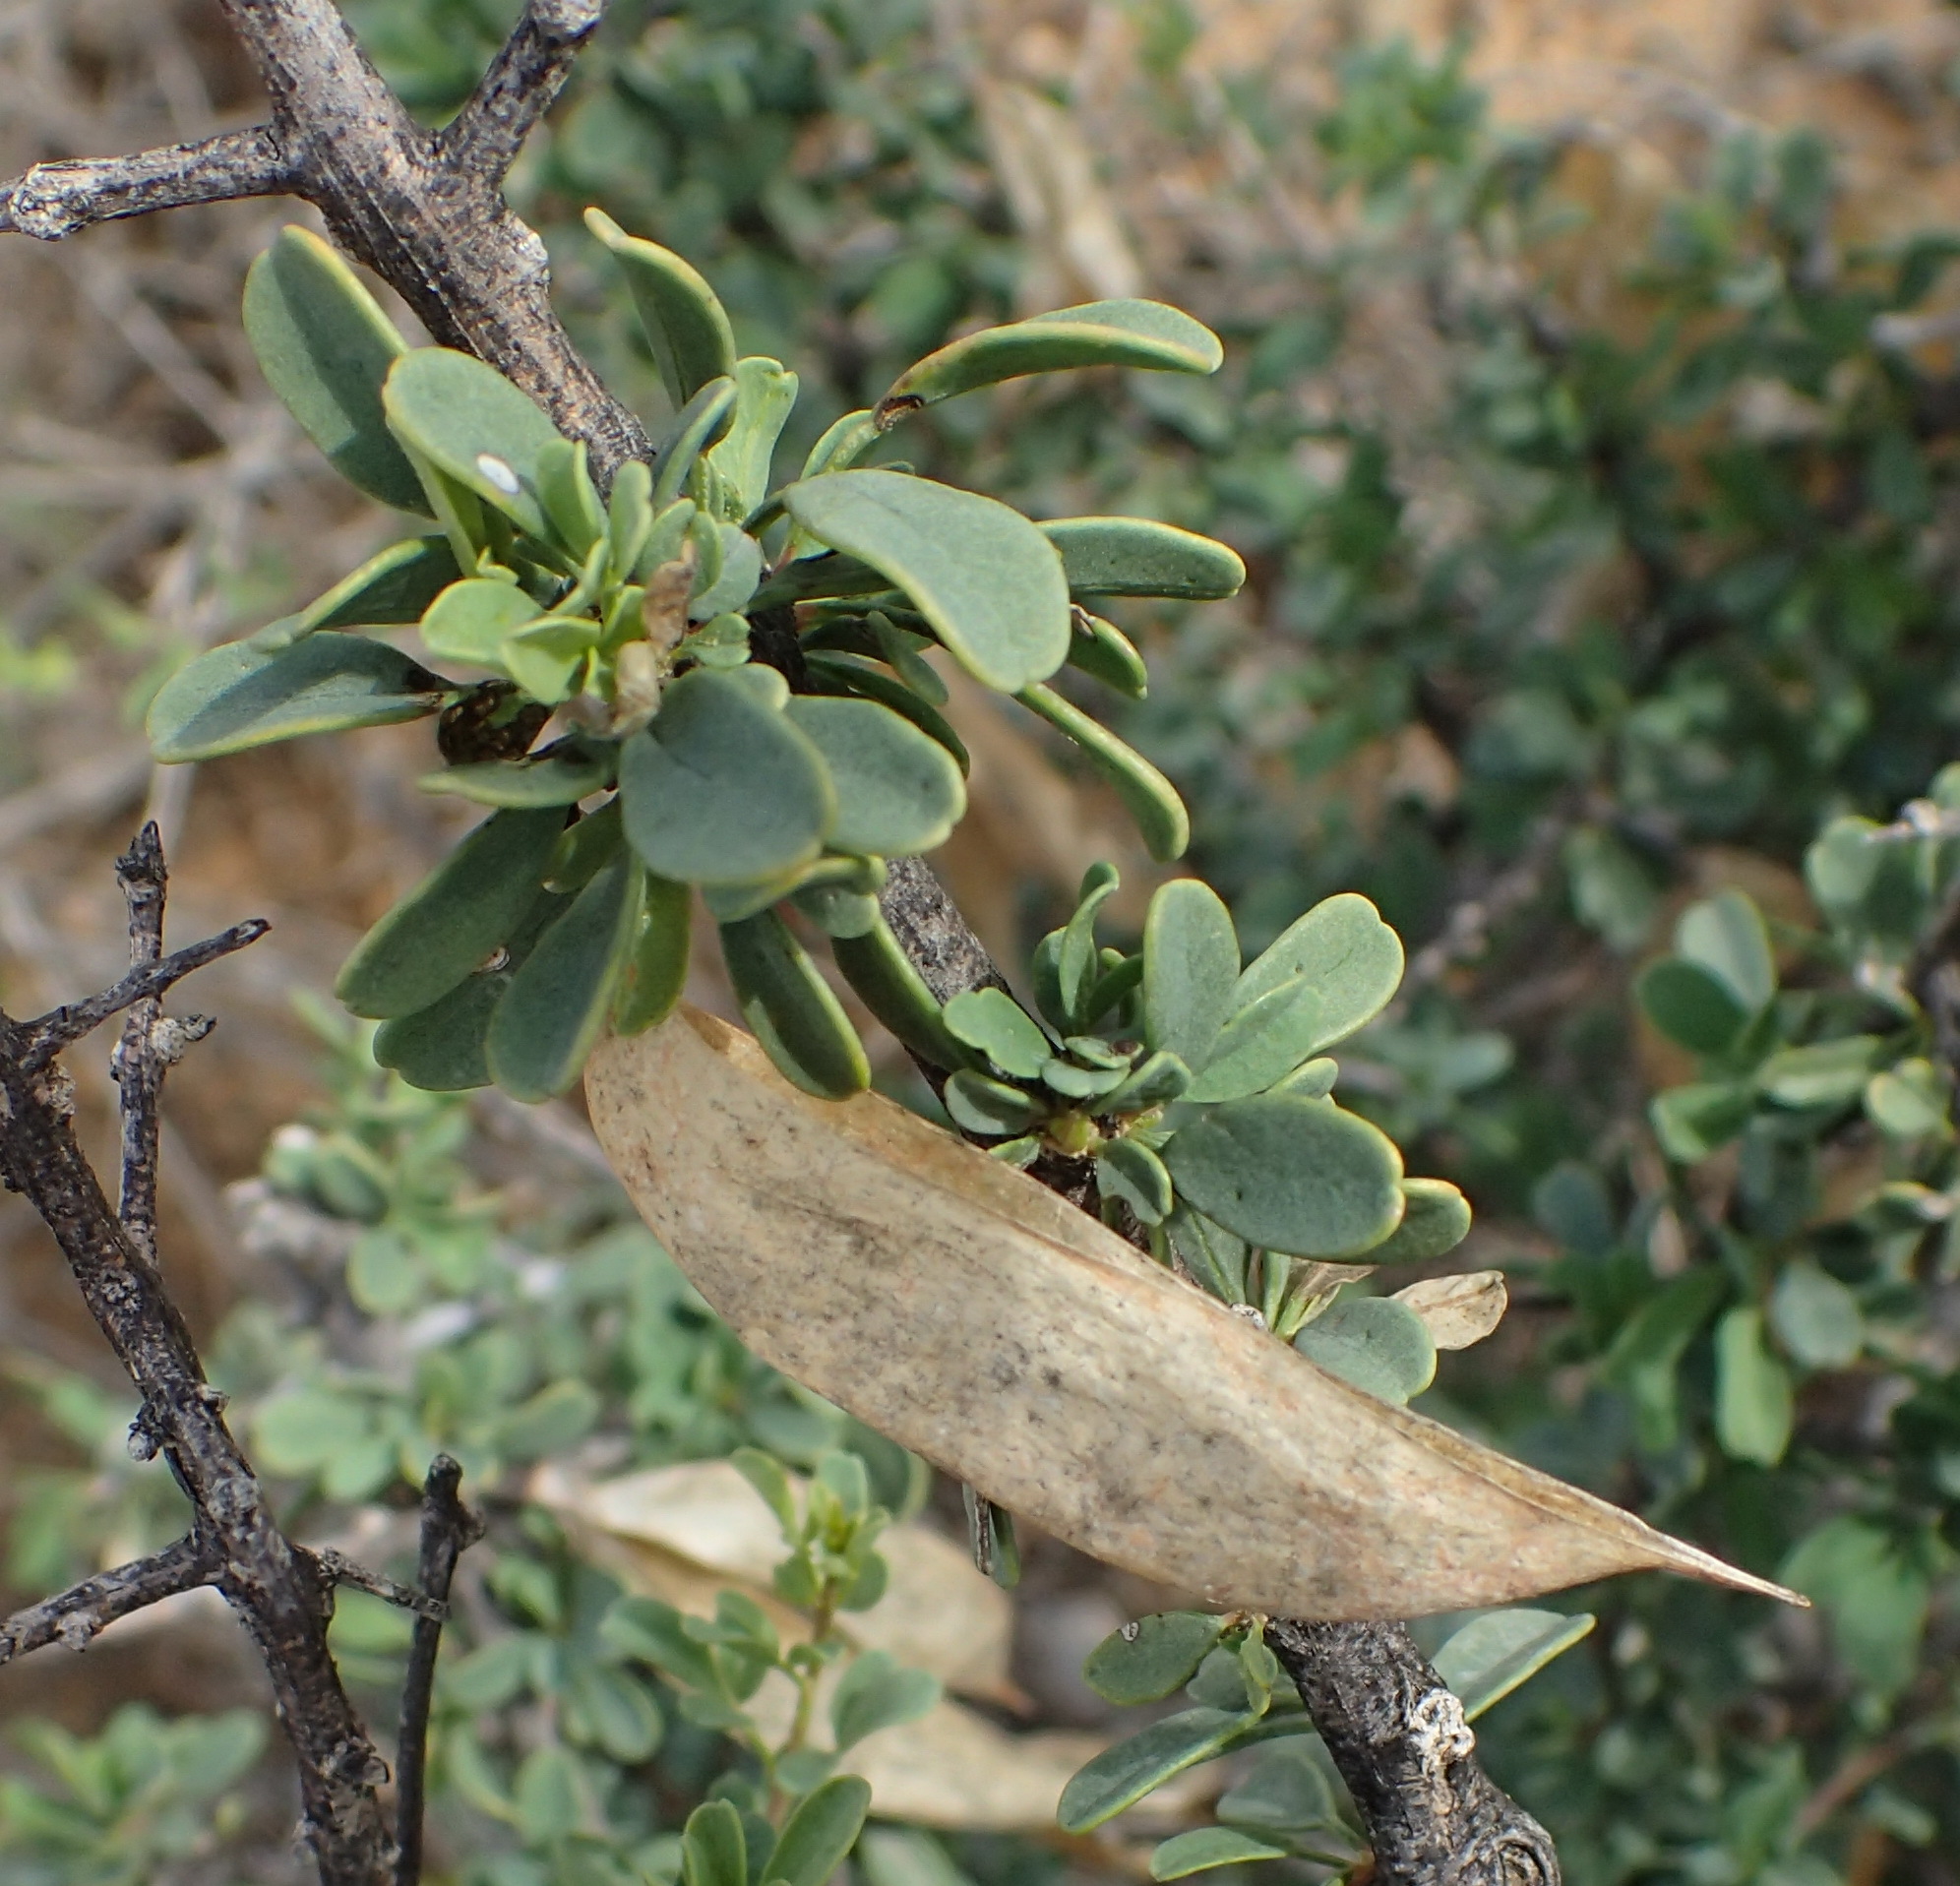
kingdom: Plantae
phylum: Tracheophyta
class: Magnoliopsida
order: Lamiales
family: Bignoniaceae
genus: Rhigozum
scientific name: Rhigozum obovatum
